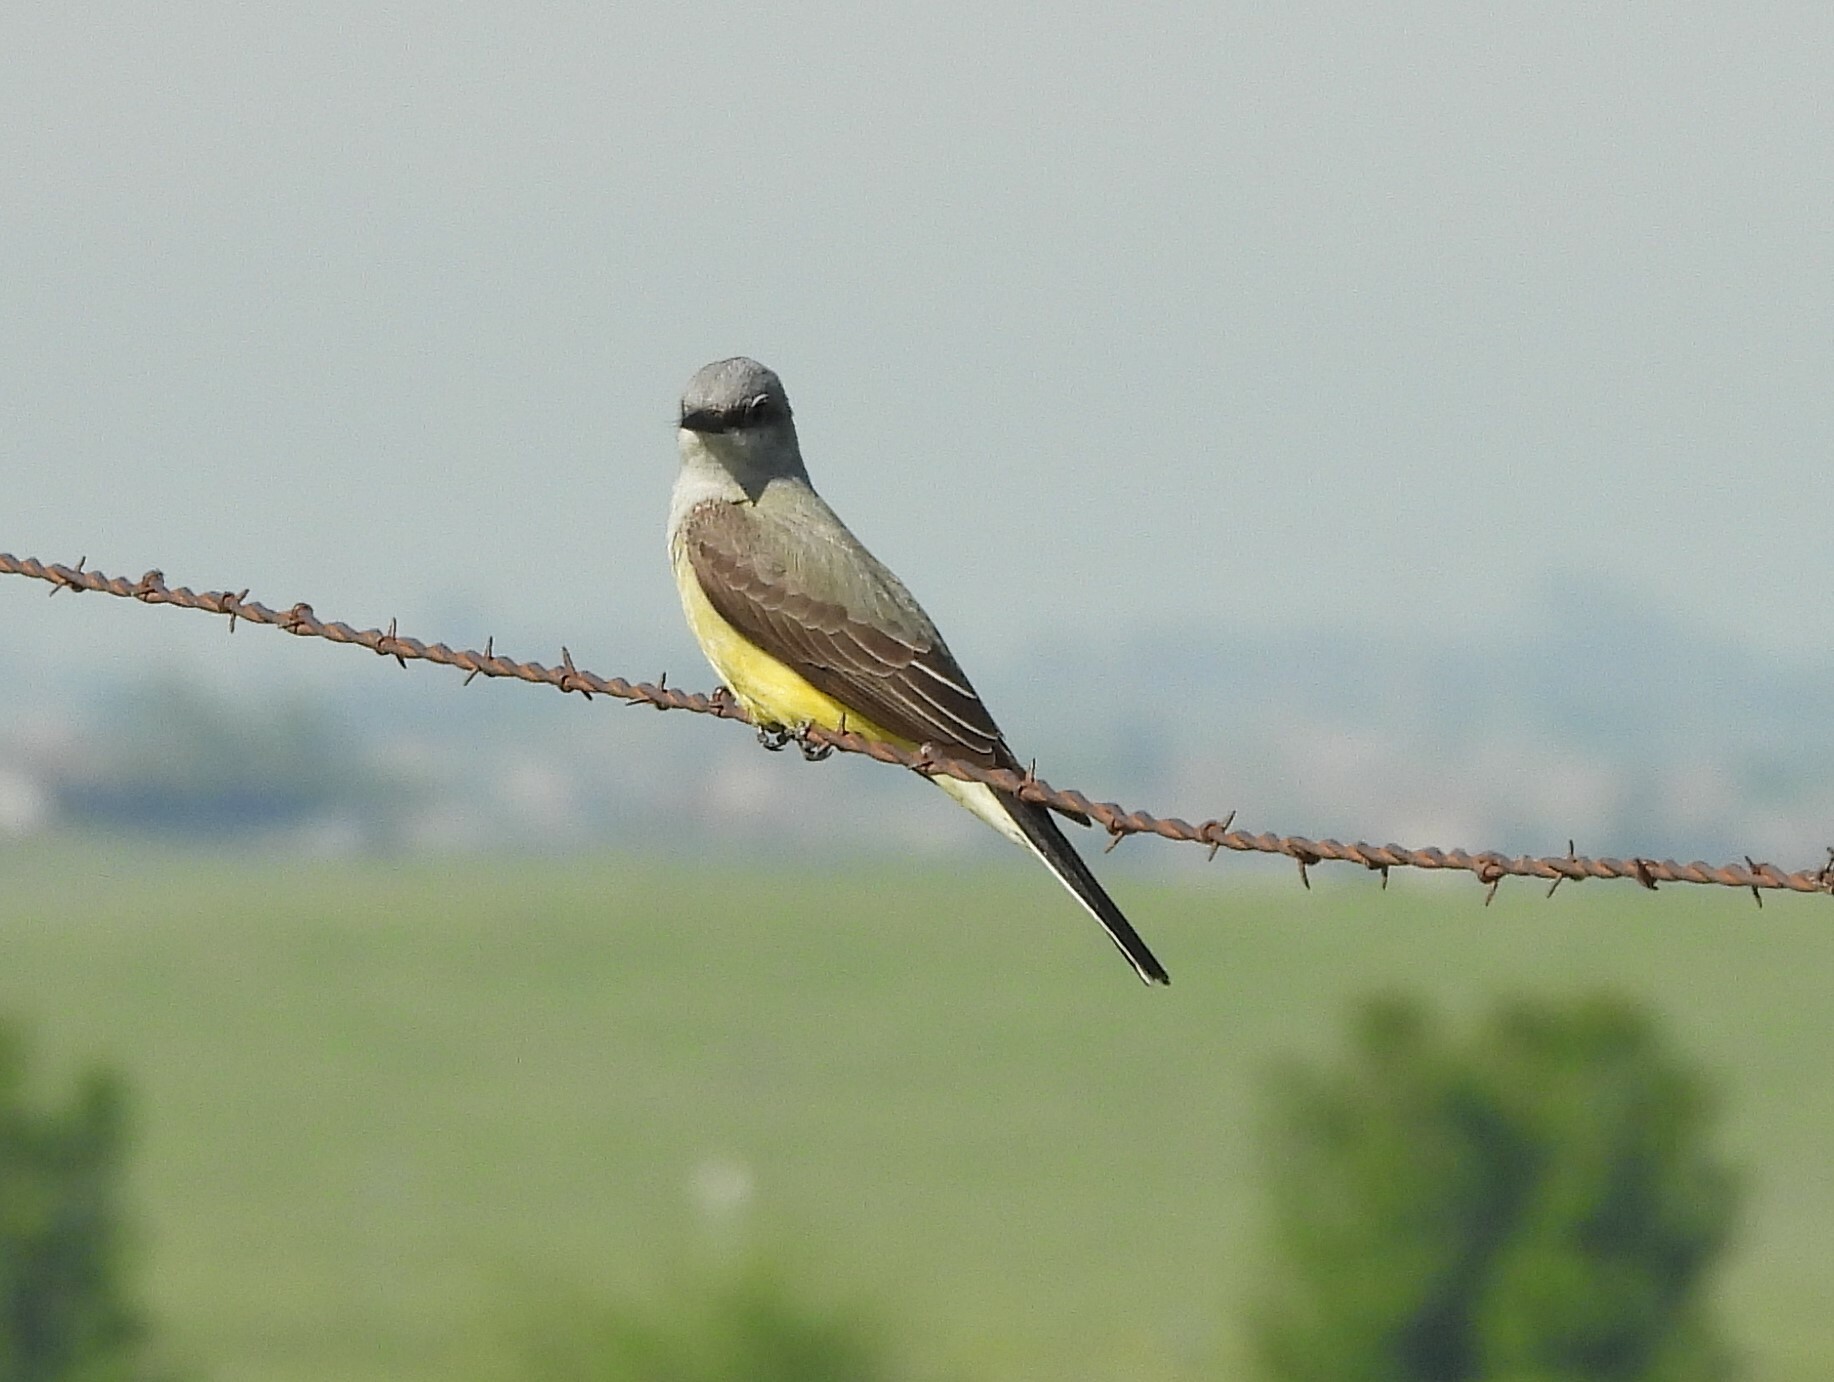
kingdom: Animalia
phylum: Chordata
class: Aves
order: Passeriformes
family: Tyrannidae
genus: Tyrannus
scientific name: Tyrannus verticalis
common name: Western kingbird
